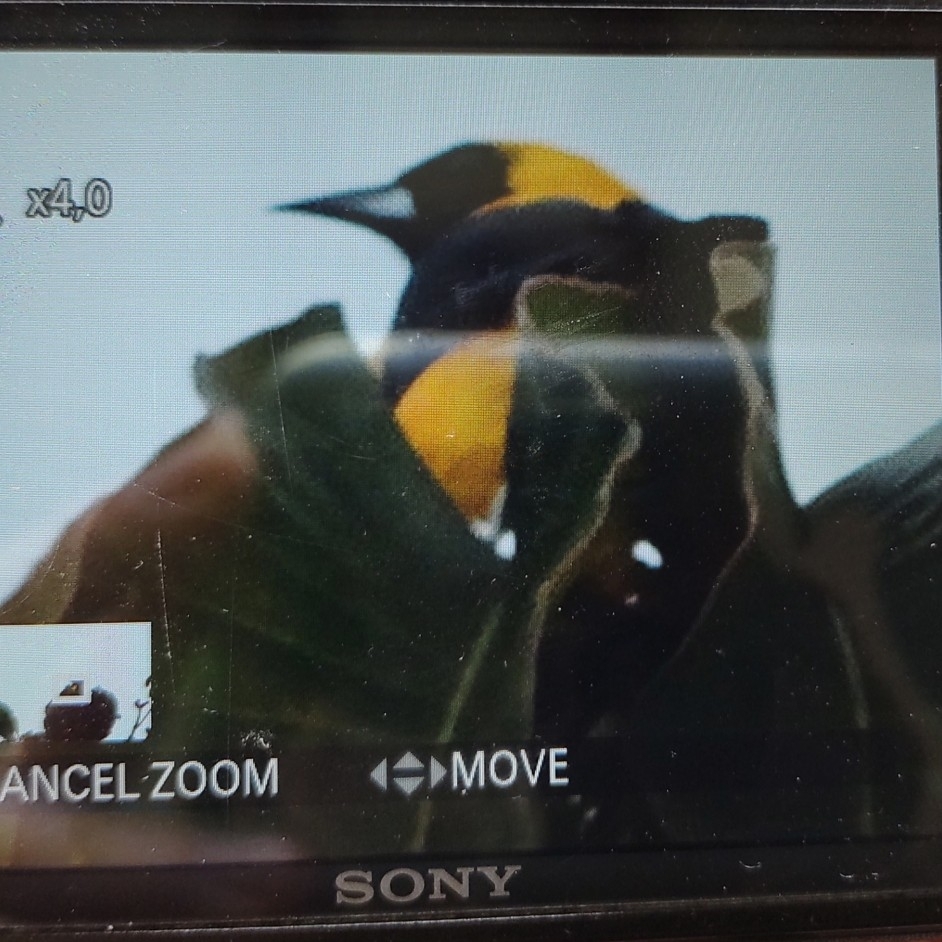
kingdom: Animalia
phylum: Chordata
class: Aves
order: Passeriformes
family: Icteridae
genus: Icterus
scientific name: Icterus chrysater
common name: Yellow-backed oriole
